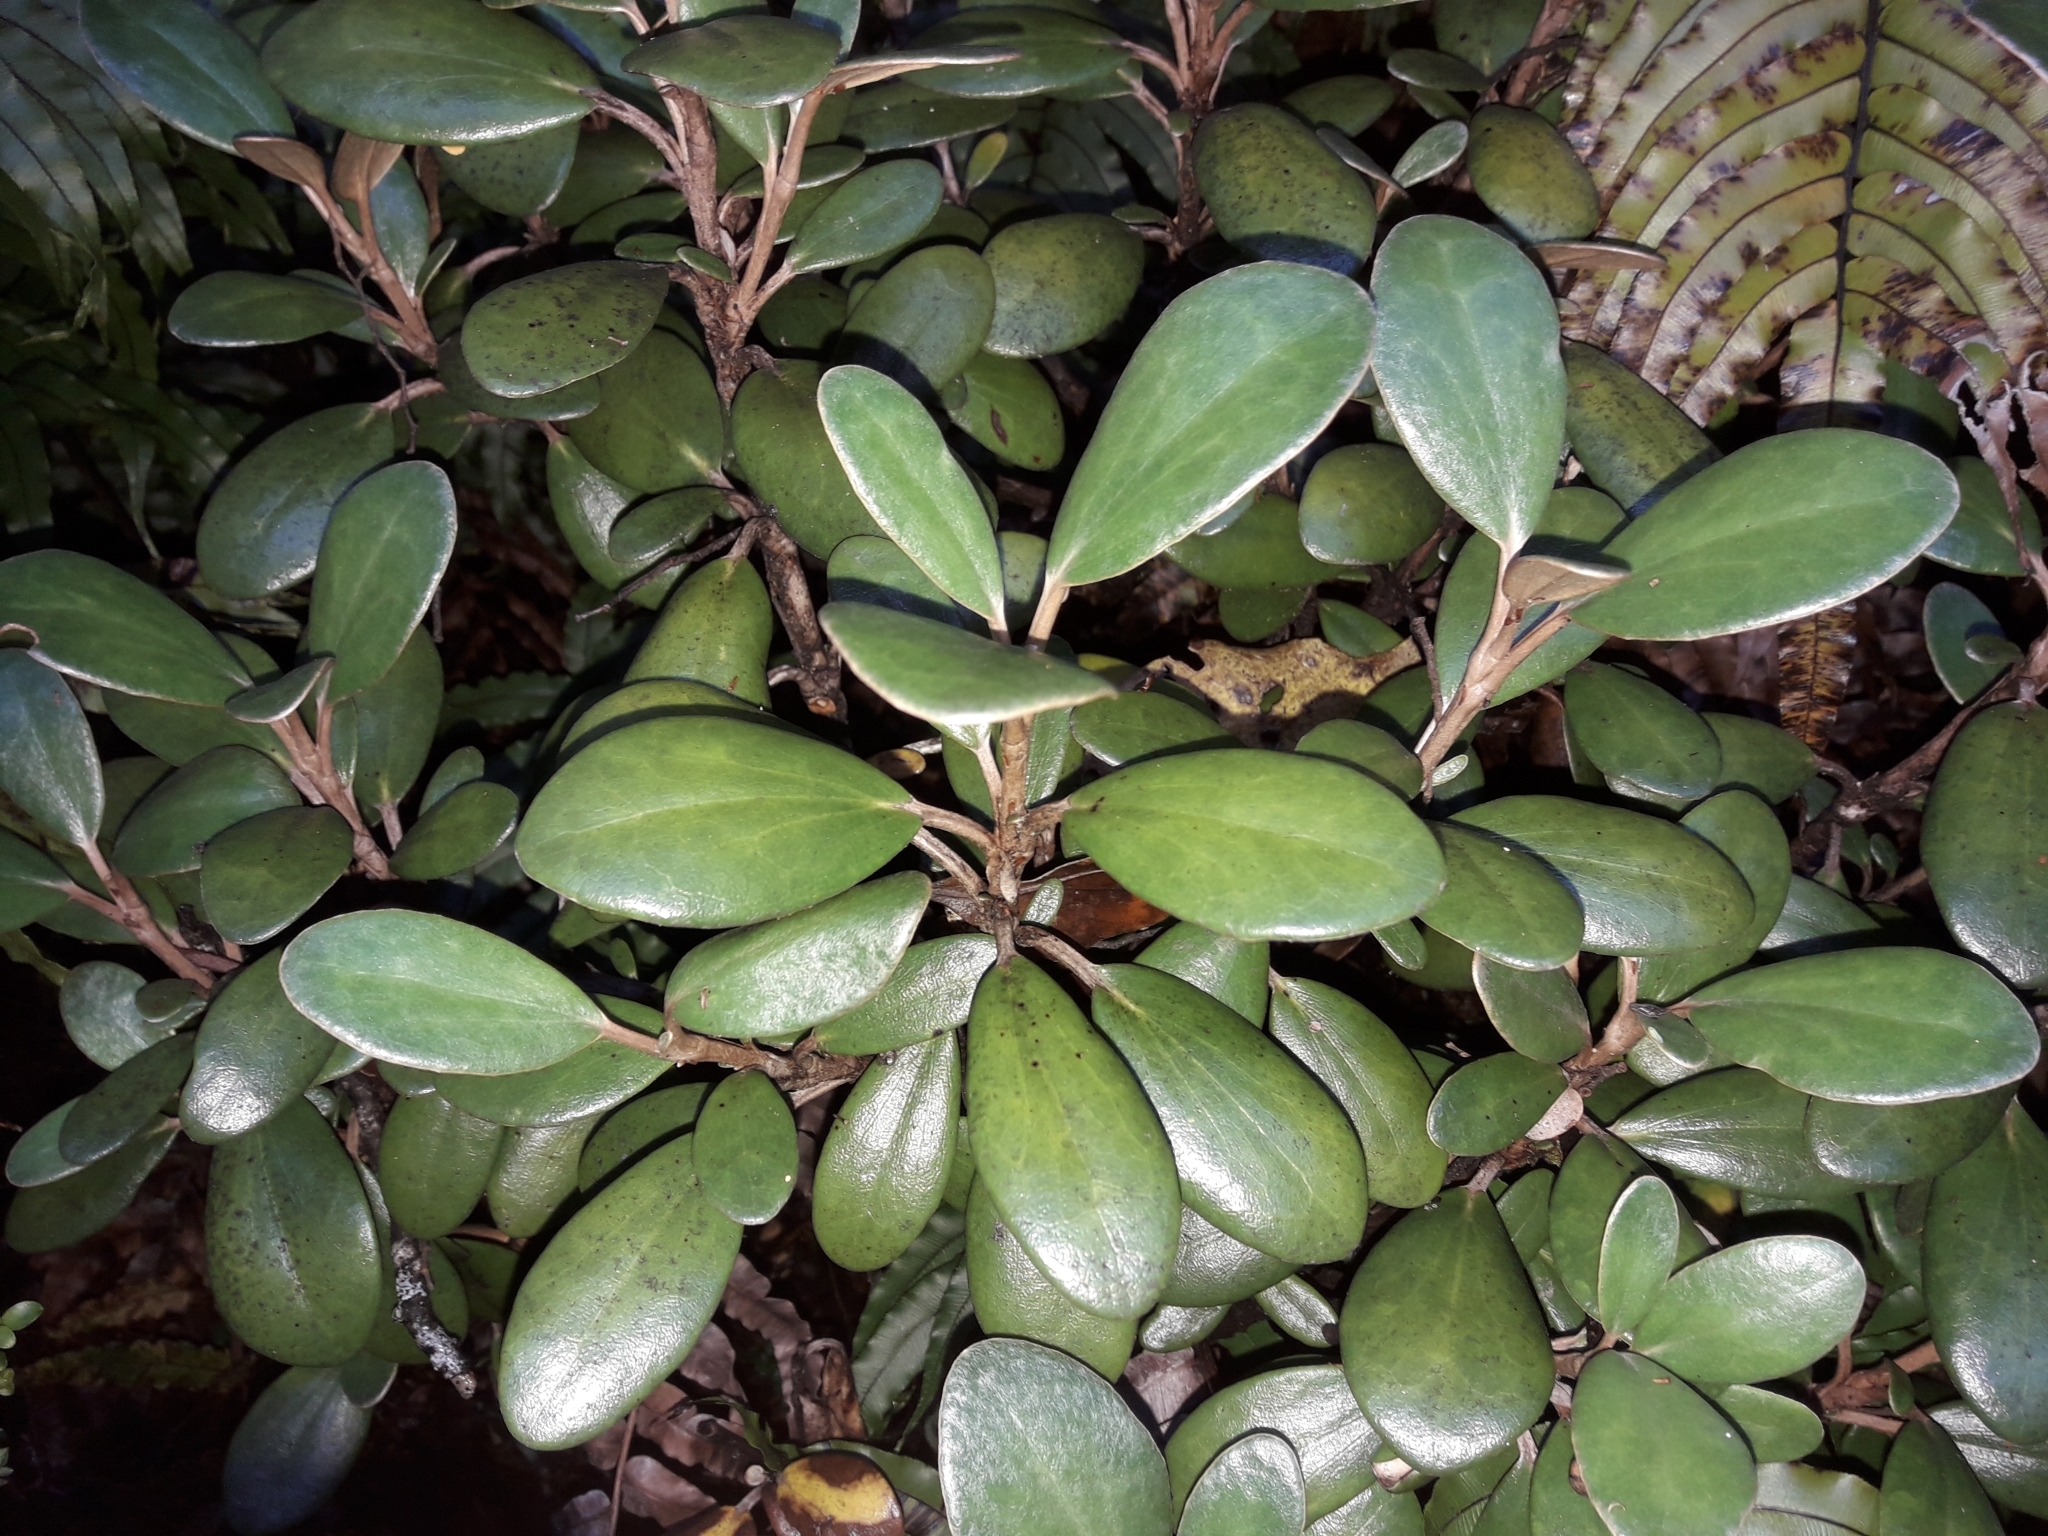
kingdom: Plantae
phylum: Tracheophyta
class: Magnoliopsida
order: Asterales
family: Asteraceae
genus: Brachyglottis
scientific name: Brachyglottis bidwillii
